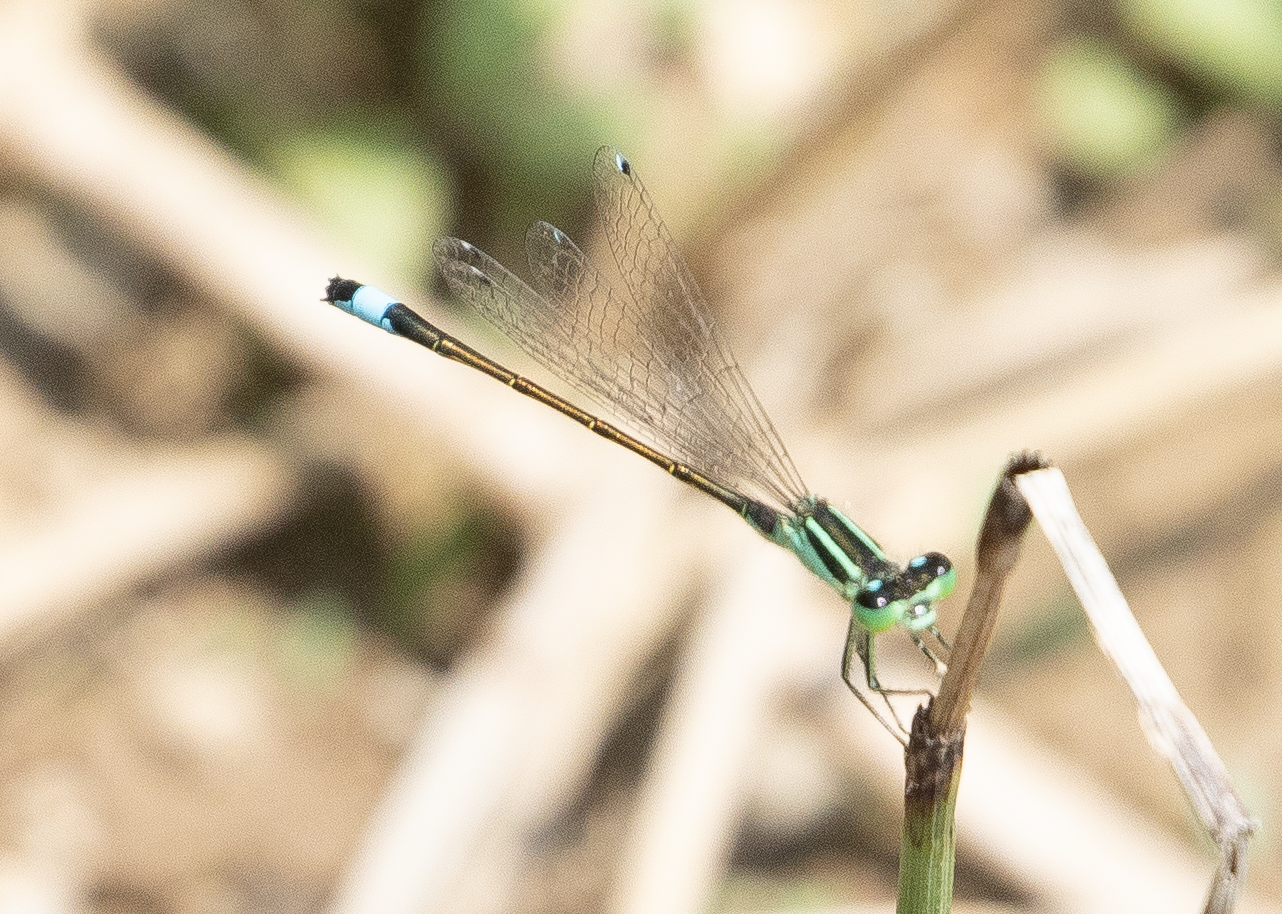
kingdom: Animalia
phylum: Arthropoda
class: Insecta
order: Odonata
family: Coenagrionidae
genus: Ischnura
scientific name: Ischnura elegans
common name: Blue-tailed damselfly
